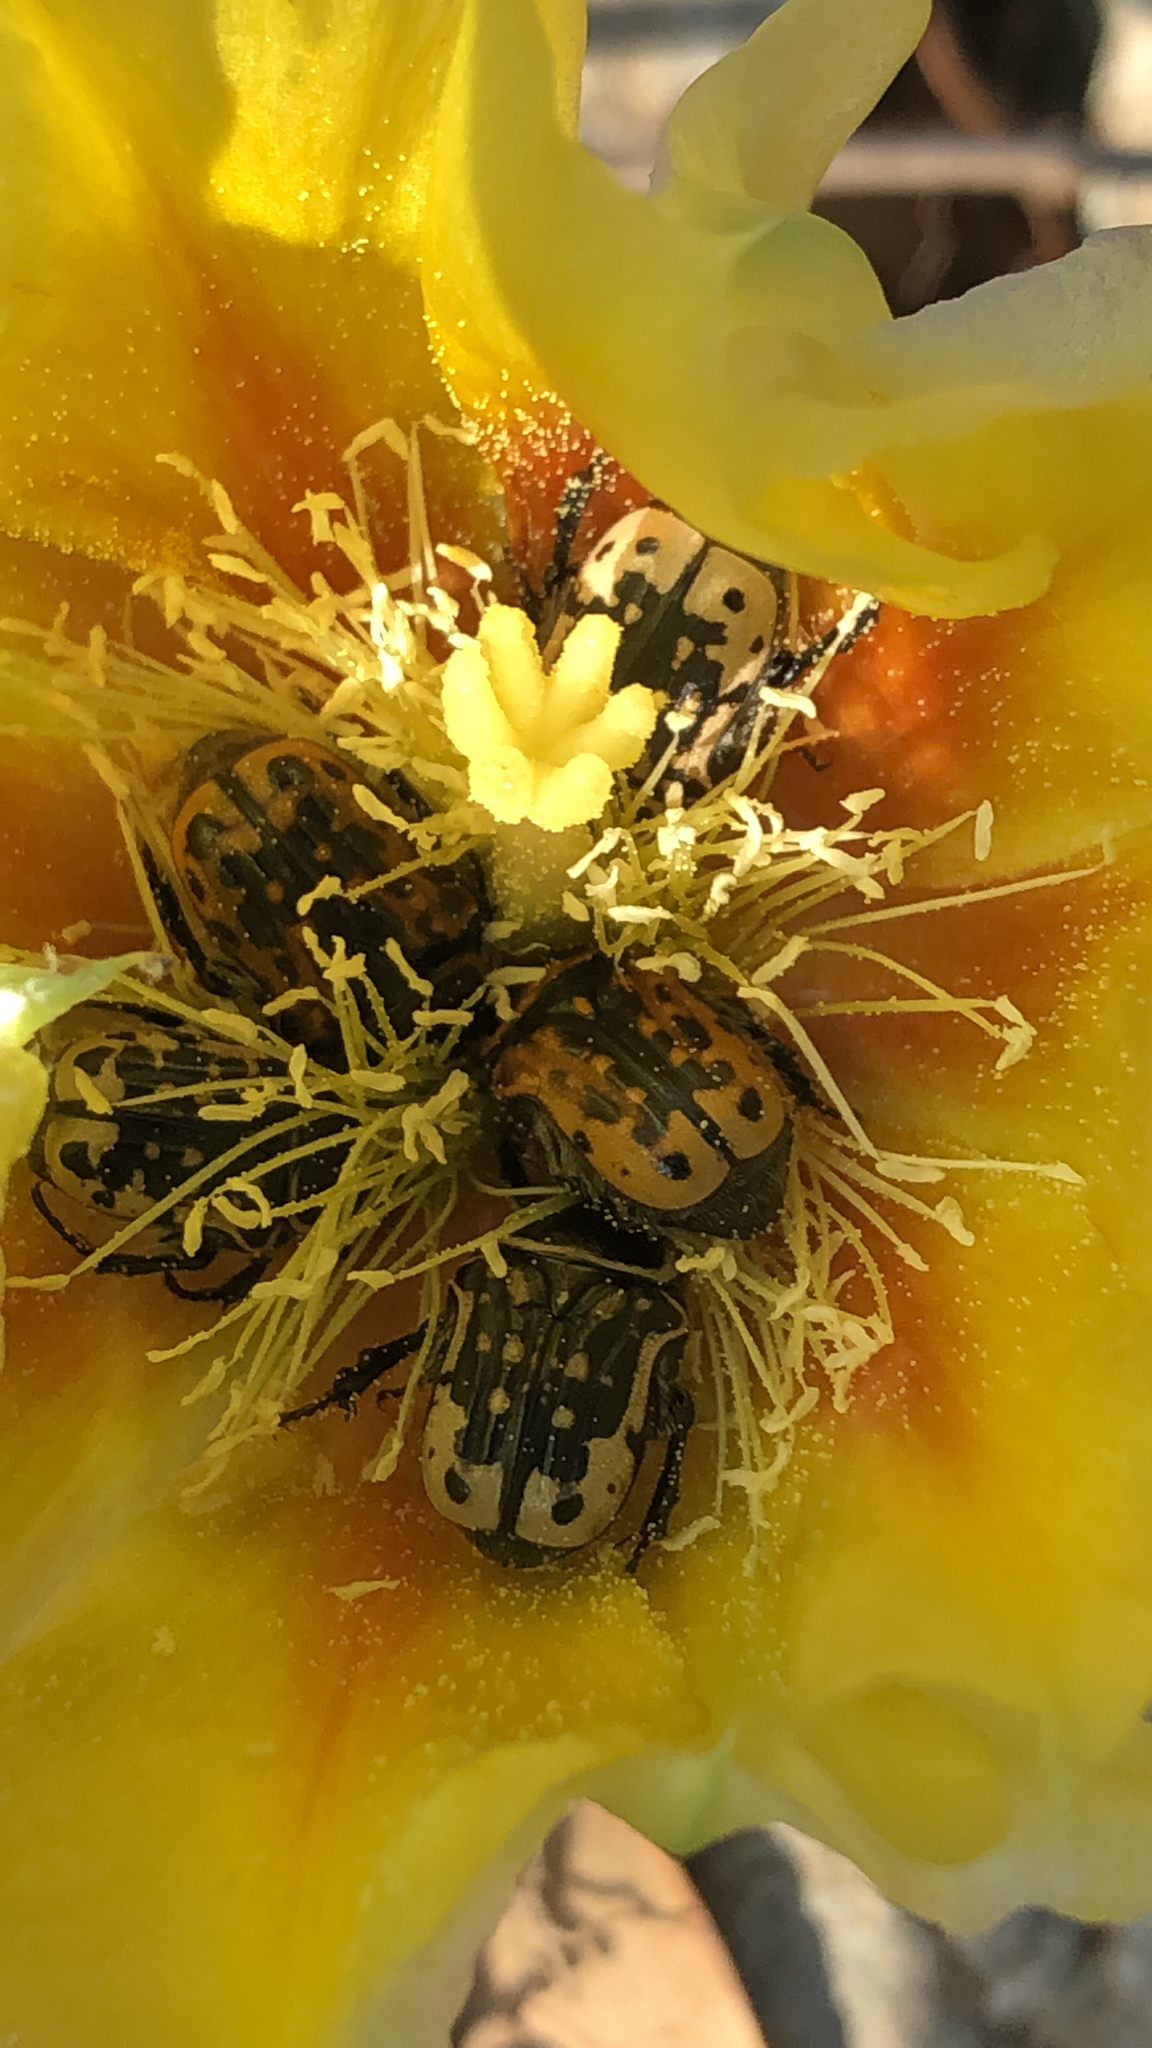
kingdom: Animalia
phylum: Arthropoda
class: Insecta
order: Coleoptera
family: Scarabaeidae
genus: Euphoria
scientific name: Euphoria kernii
